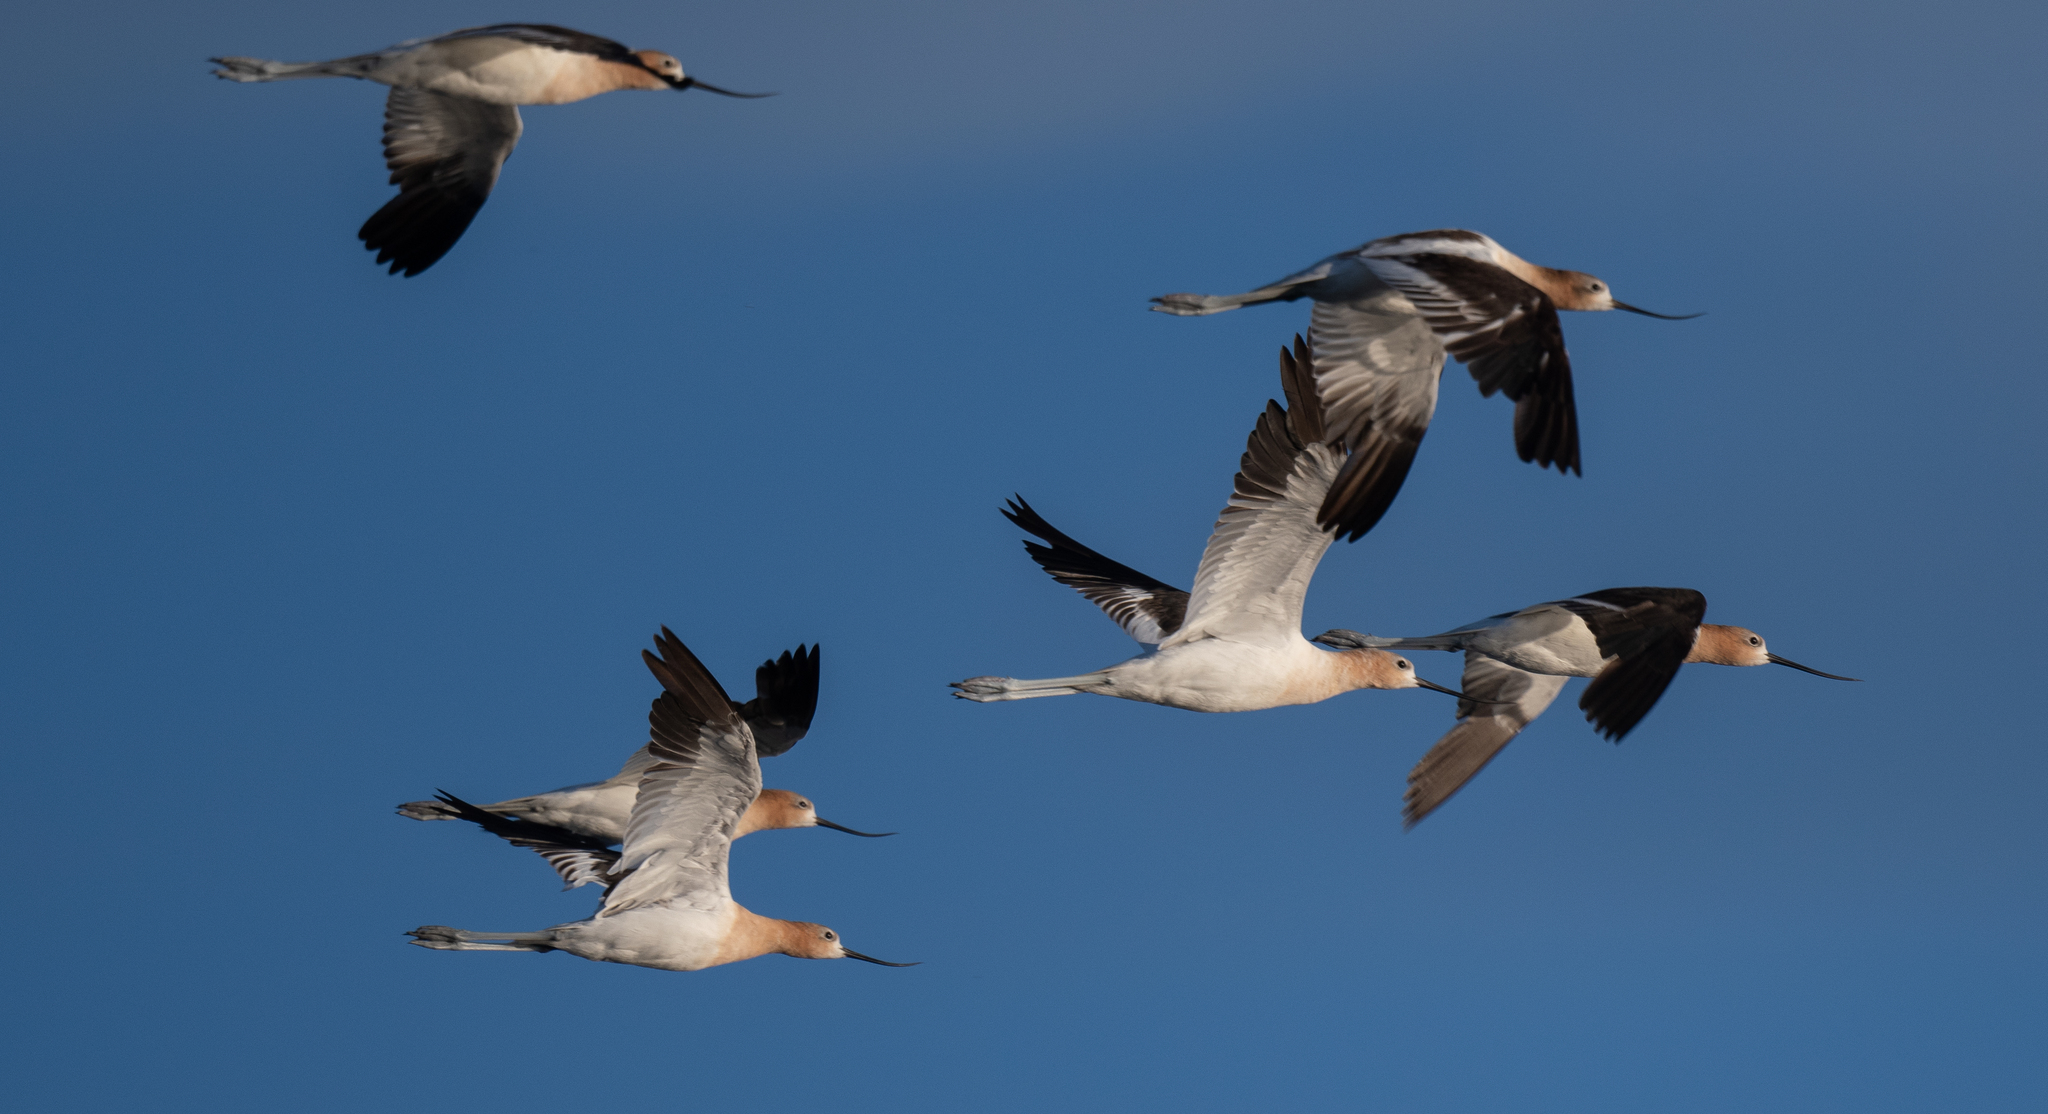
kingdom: Animalia
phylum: Chordata
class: Aves
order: Charadriiformes
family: Recurvirostridae
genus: Recurvirostra
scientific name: Recurvirostra americana
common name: American avocet
